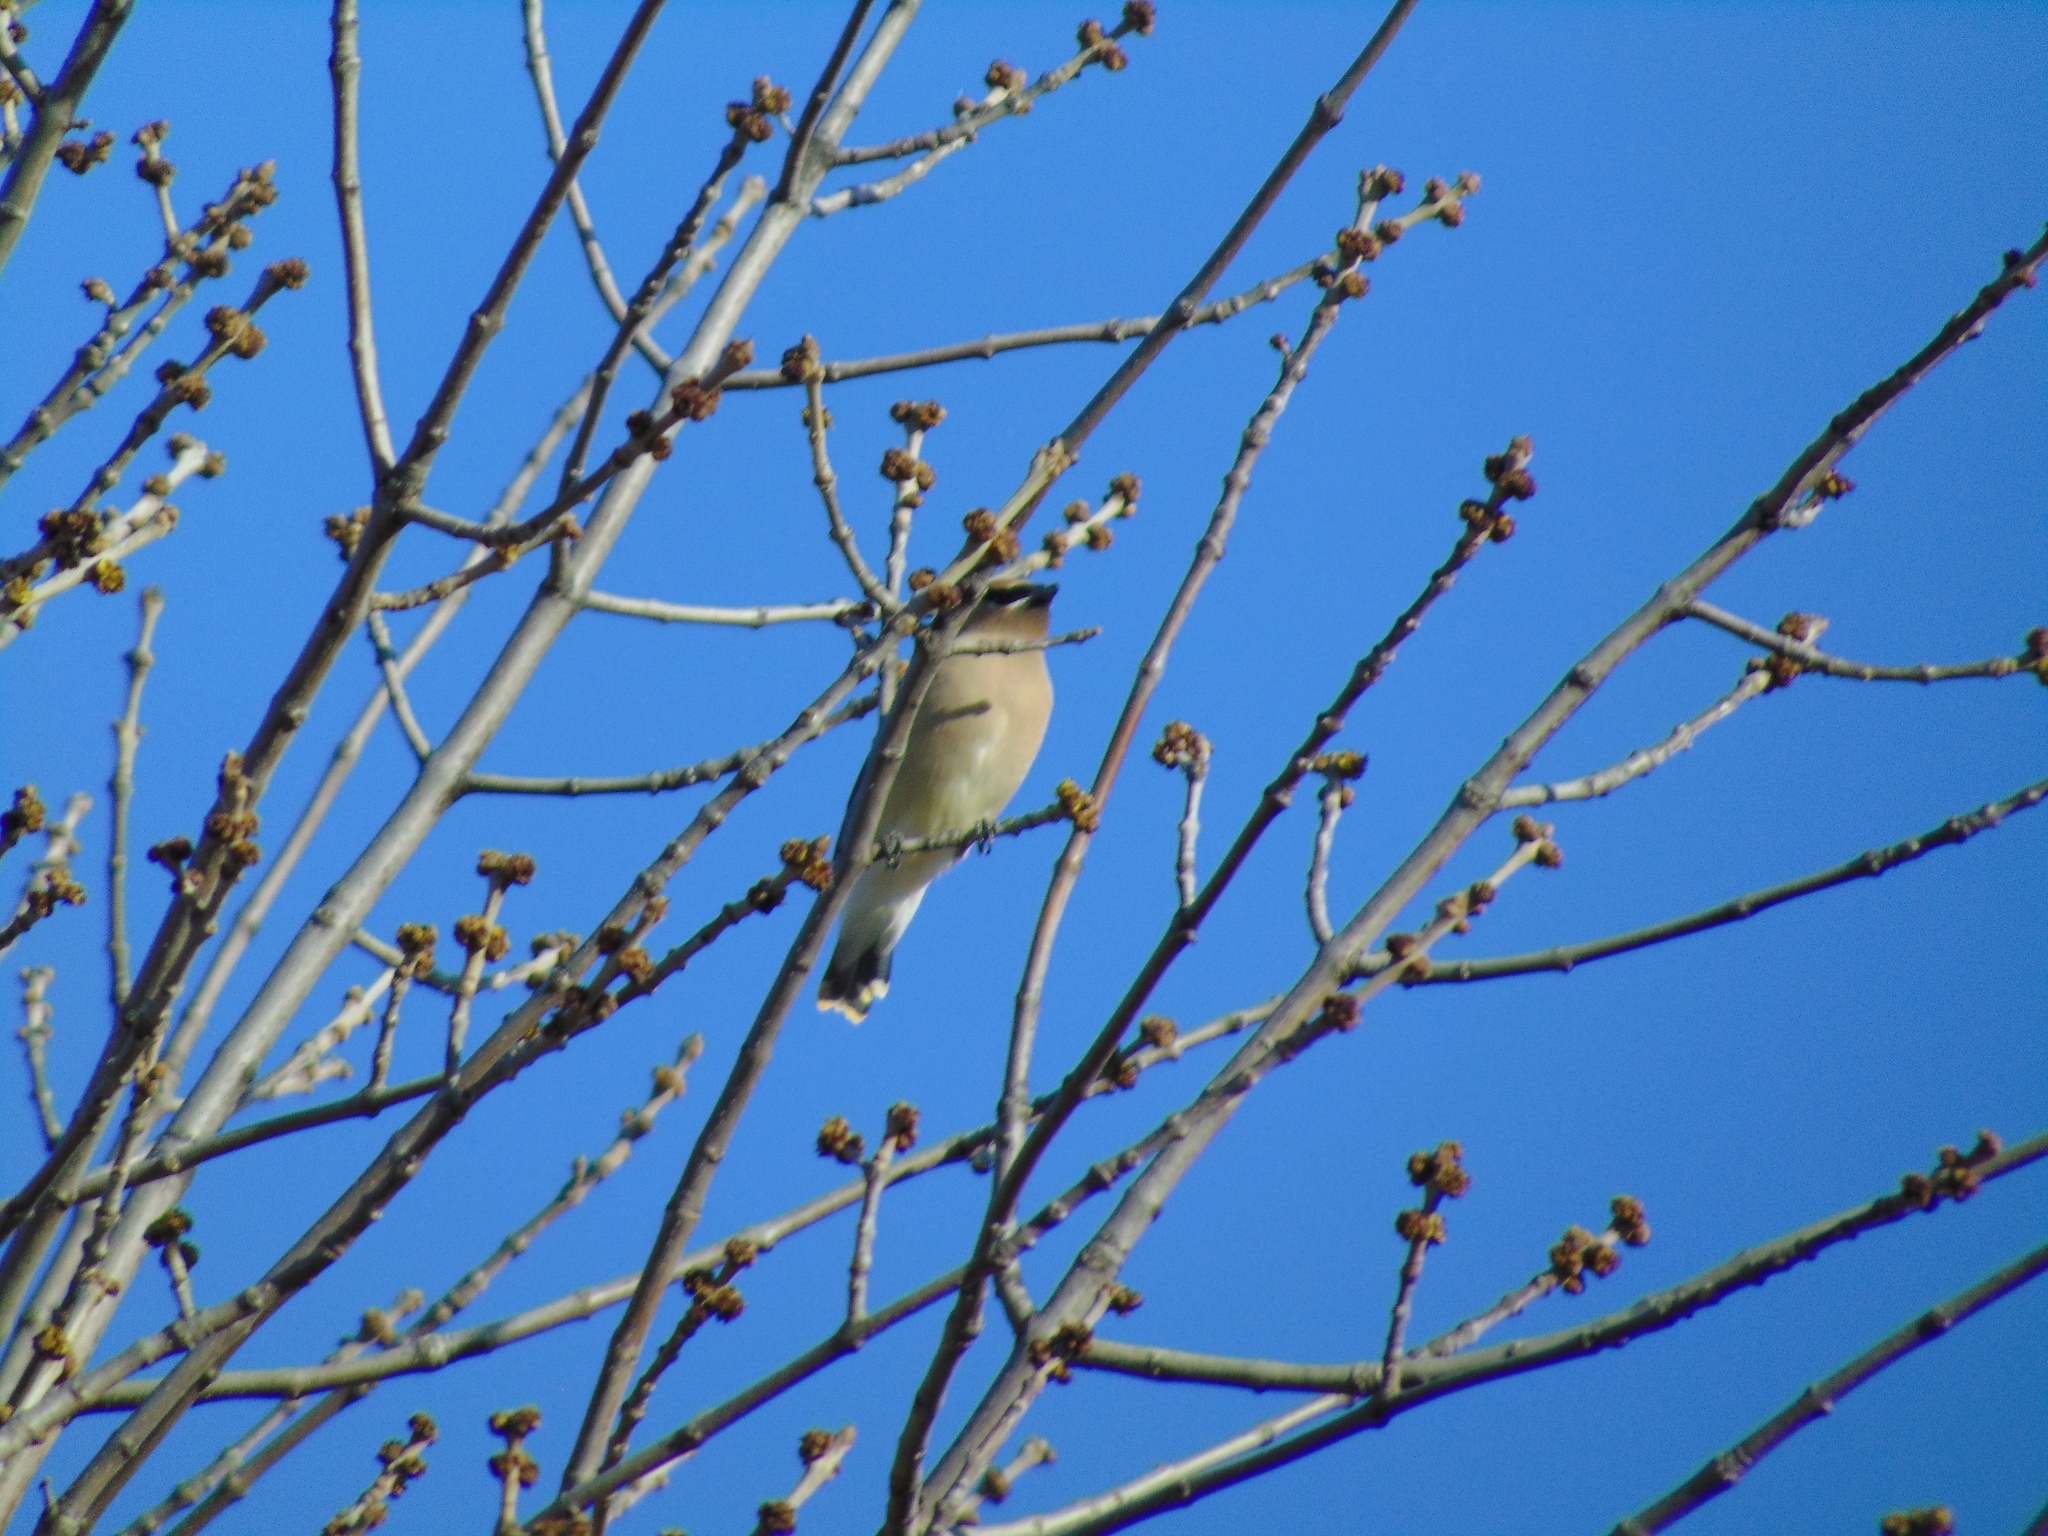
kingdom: Animalia
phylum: Chordata
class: Aves
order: Passeriformes
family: Bombycillidae
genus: Bombycilla
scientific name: Bombycilla cedrorum
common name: Cedar waxwing
